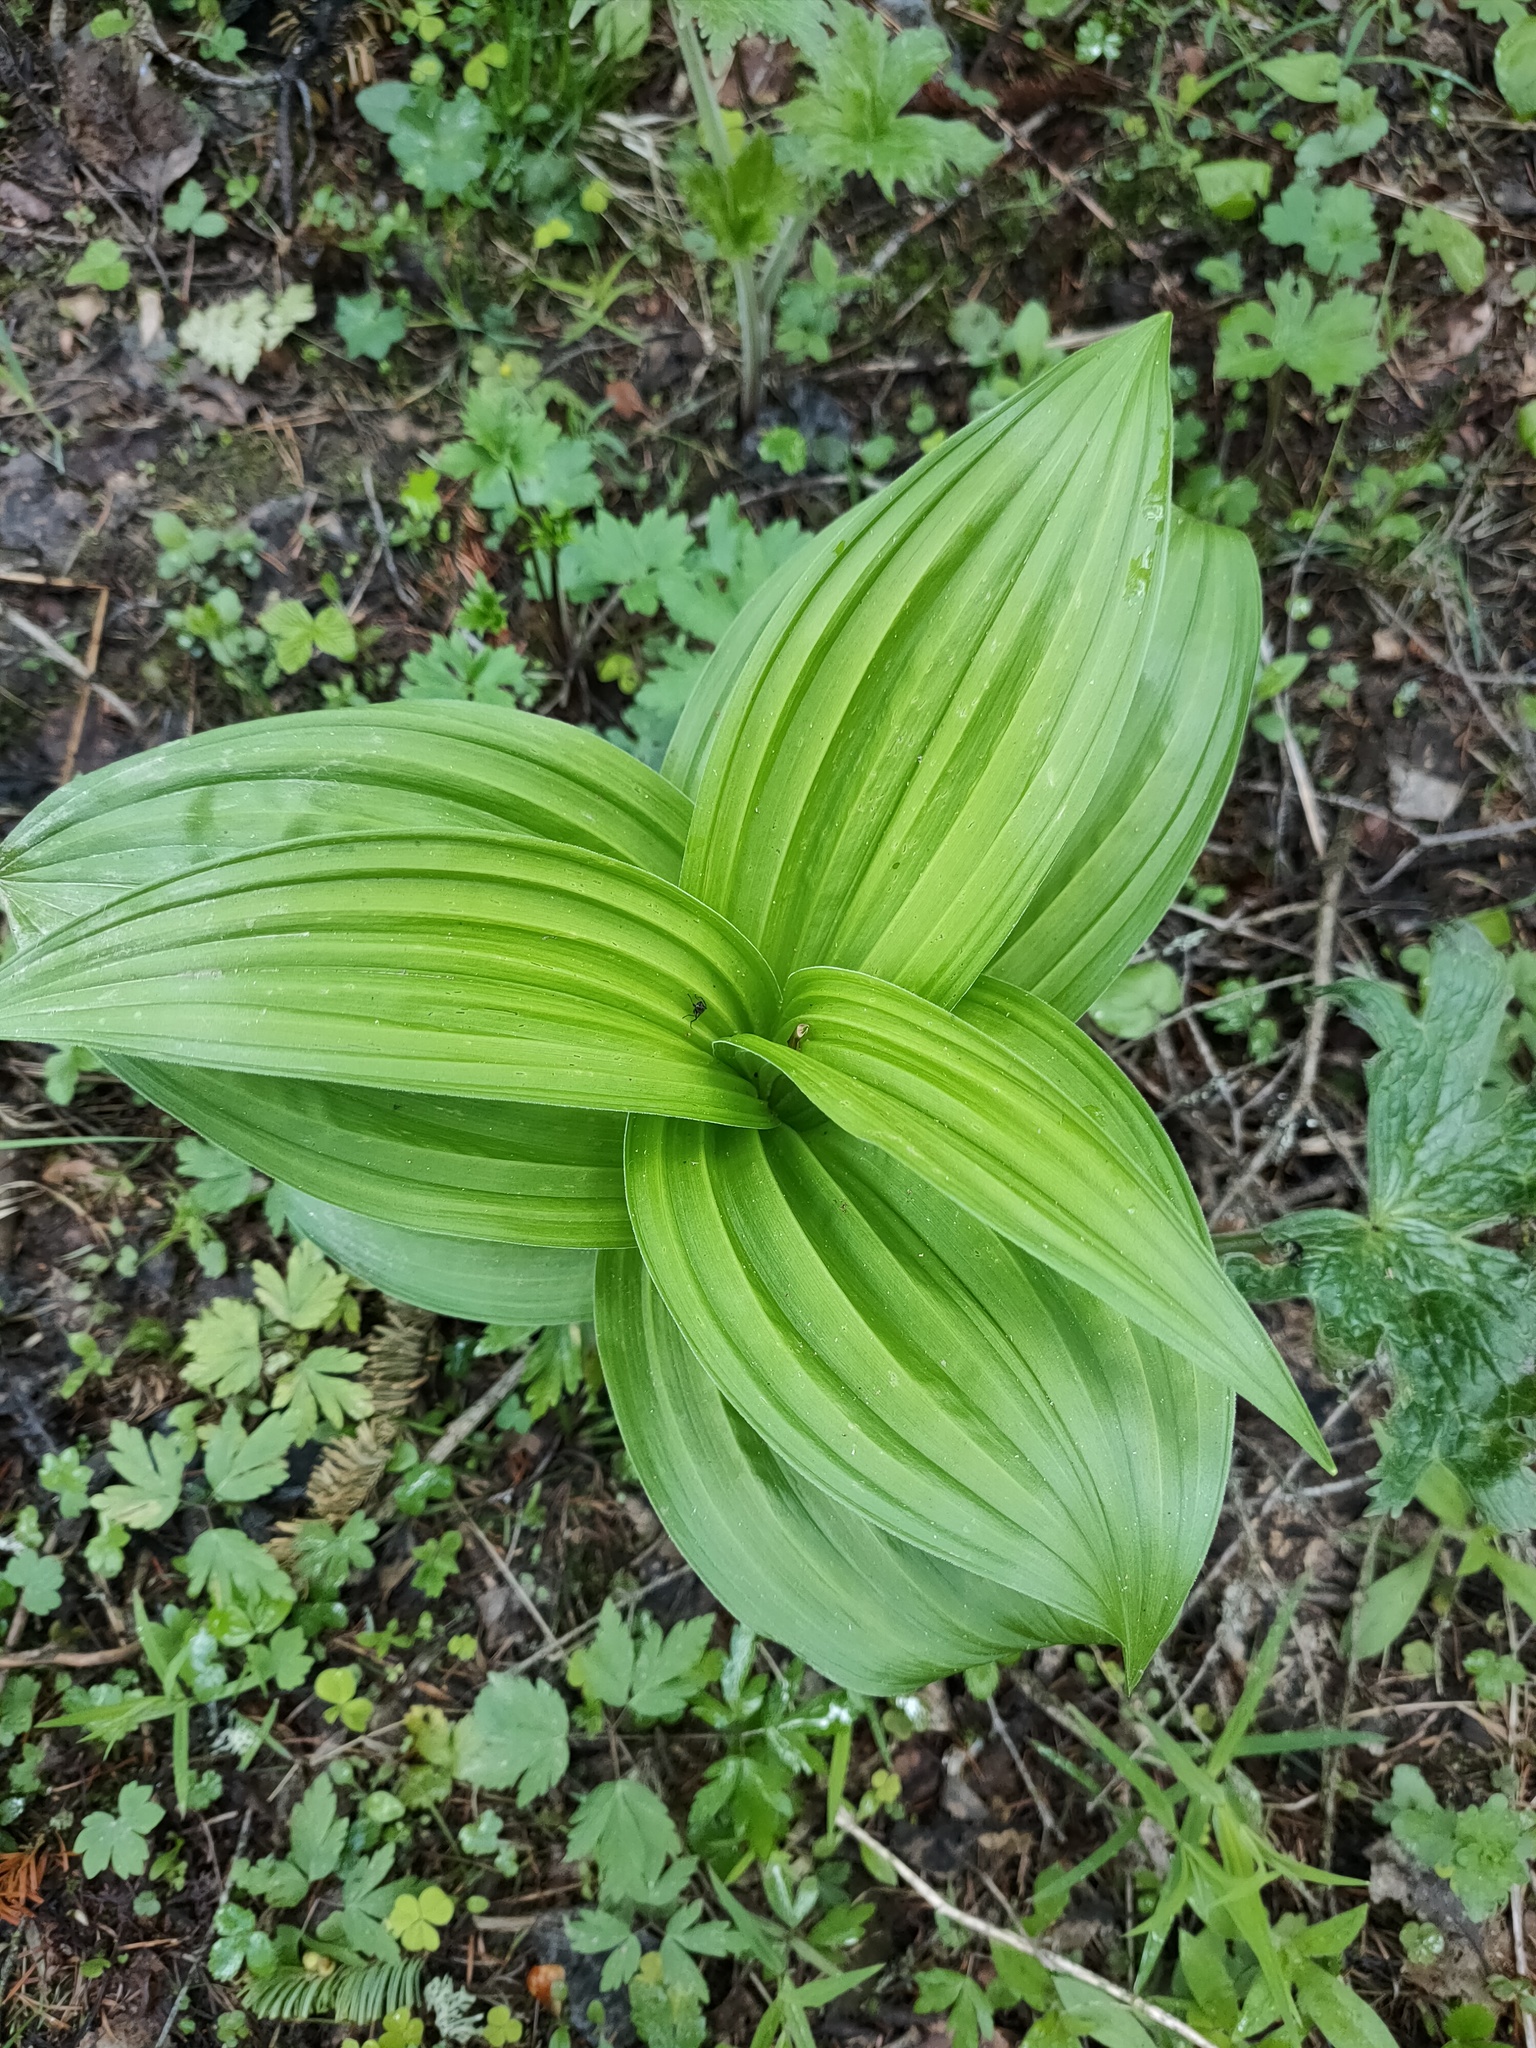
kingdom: Plantae
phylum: Tracheophyta
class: Liliopsida
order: Liliales
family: Melanthiaceae
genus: Veratrum
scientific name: Veratrum lobelianum
